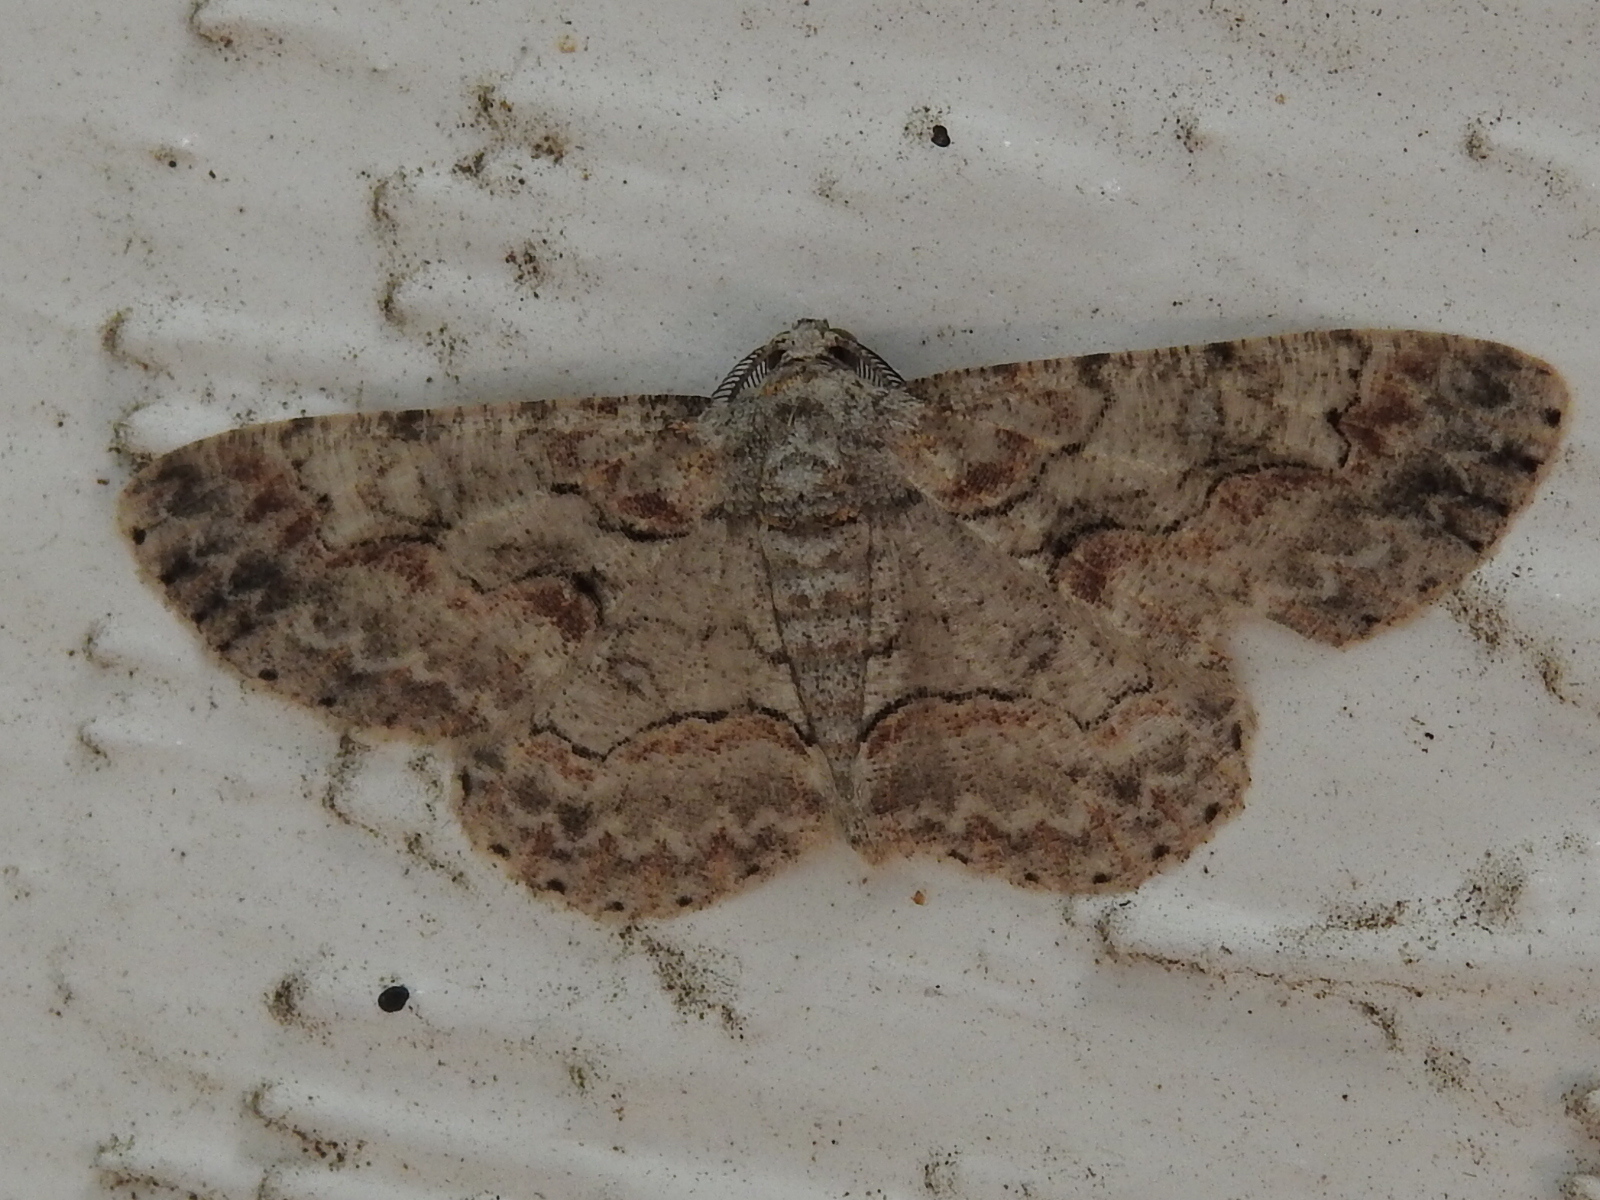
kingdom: Animalia
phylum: Arthropoda
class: Insecta
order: Lepidoptera
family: Geometridae
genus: Iridopsis
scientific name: Iridopsis defectaria
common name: Brown-shaded gray
